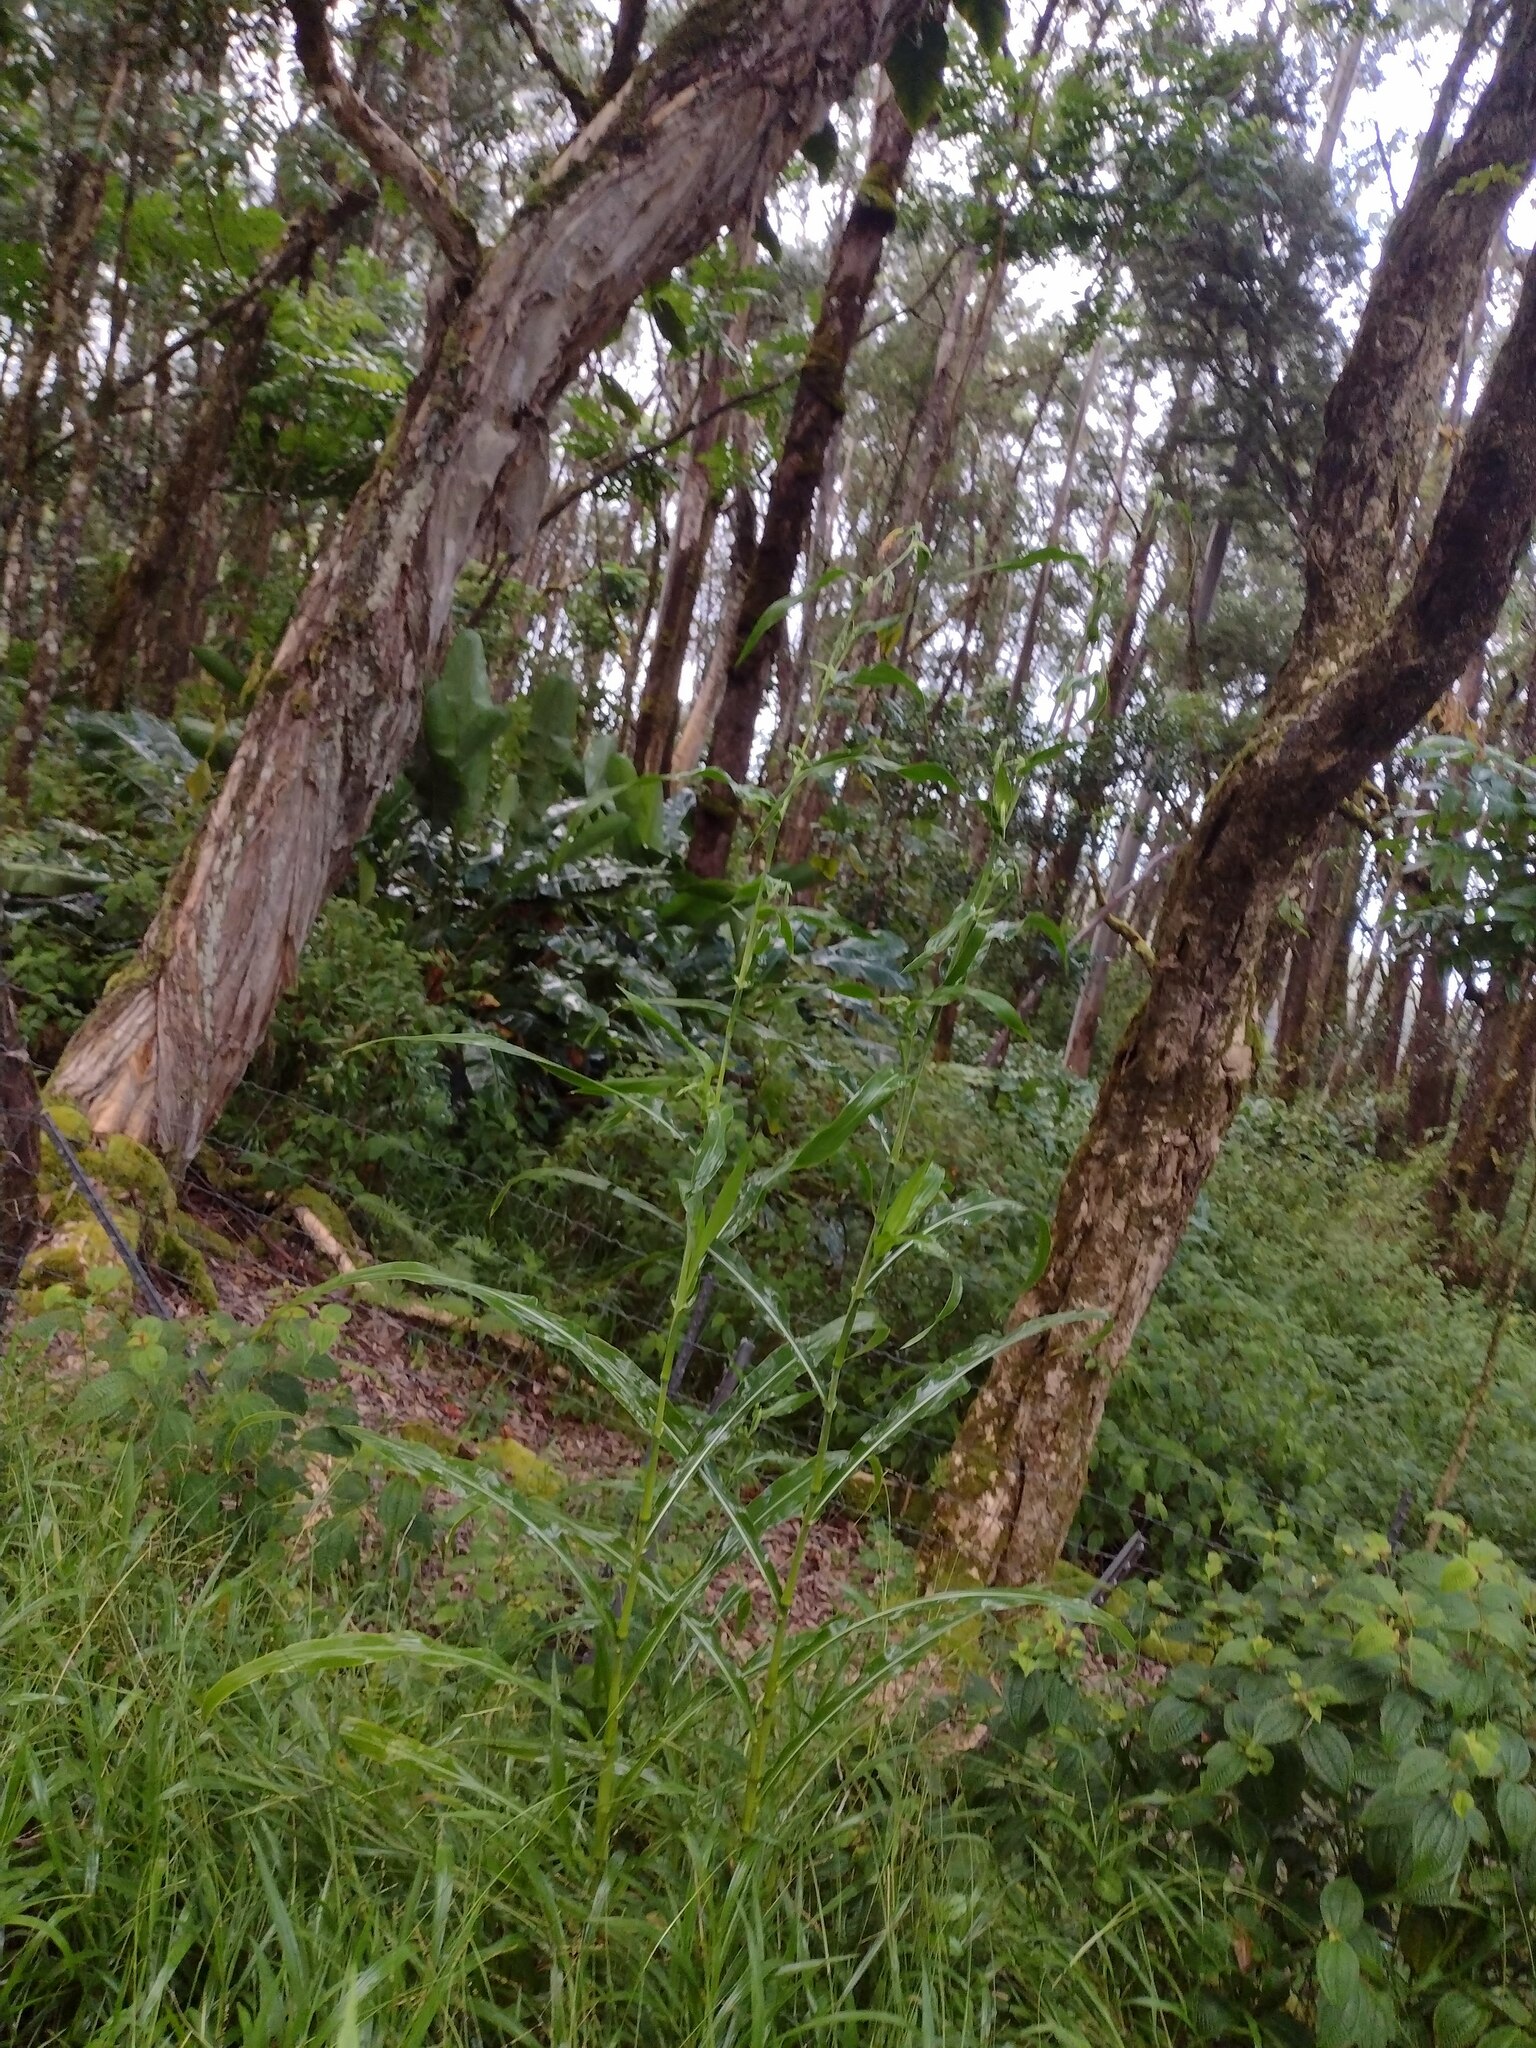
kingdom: Plantae
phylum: Tracheophyta
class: Liliopsida
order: Poales
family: Poaceae
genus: Coix
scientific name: Coix lacryma-jobi
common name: Job's tears
